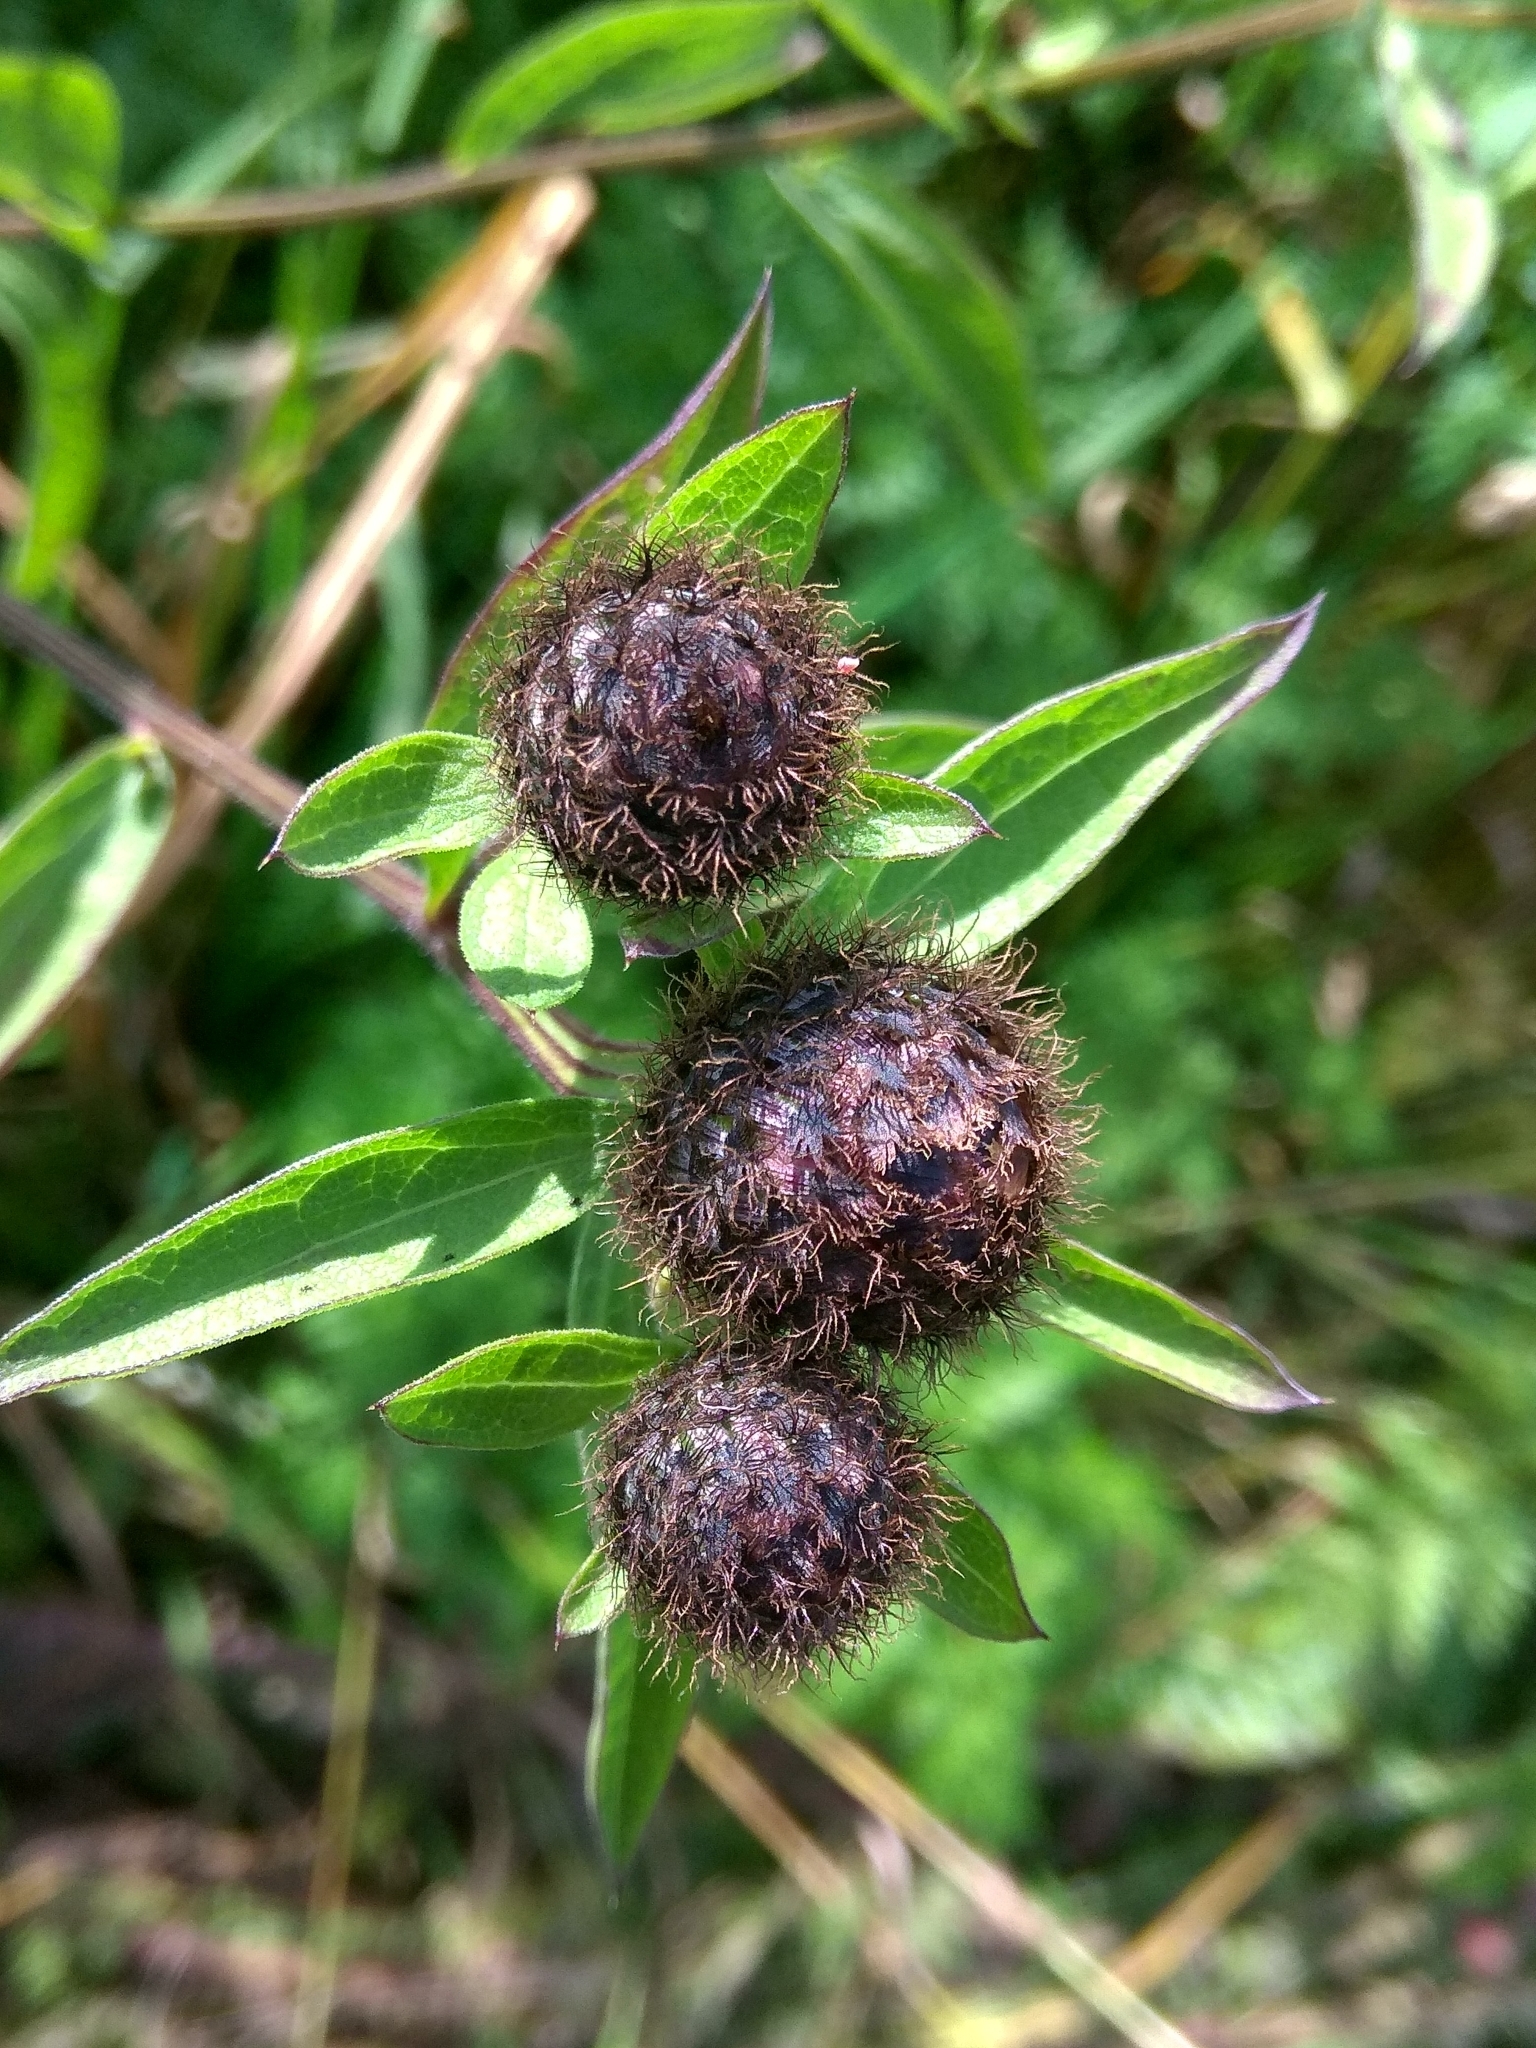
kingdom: Plantae
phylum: Tracheophyta
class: Magnoliopsida
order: Asterales
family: Asteraceae
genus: Centaurea
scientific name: Centaurea phrygia
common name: Wig knapweed
